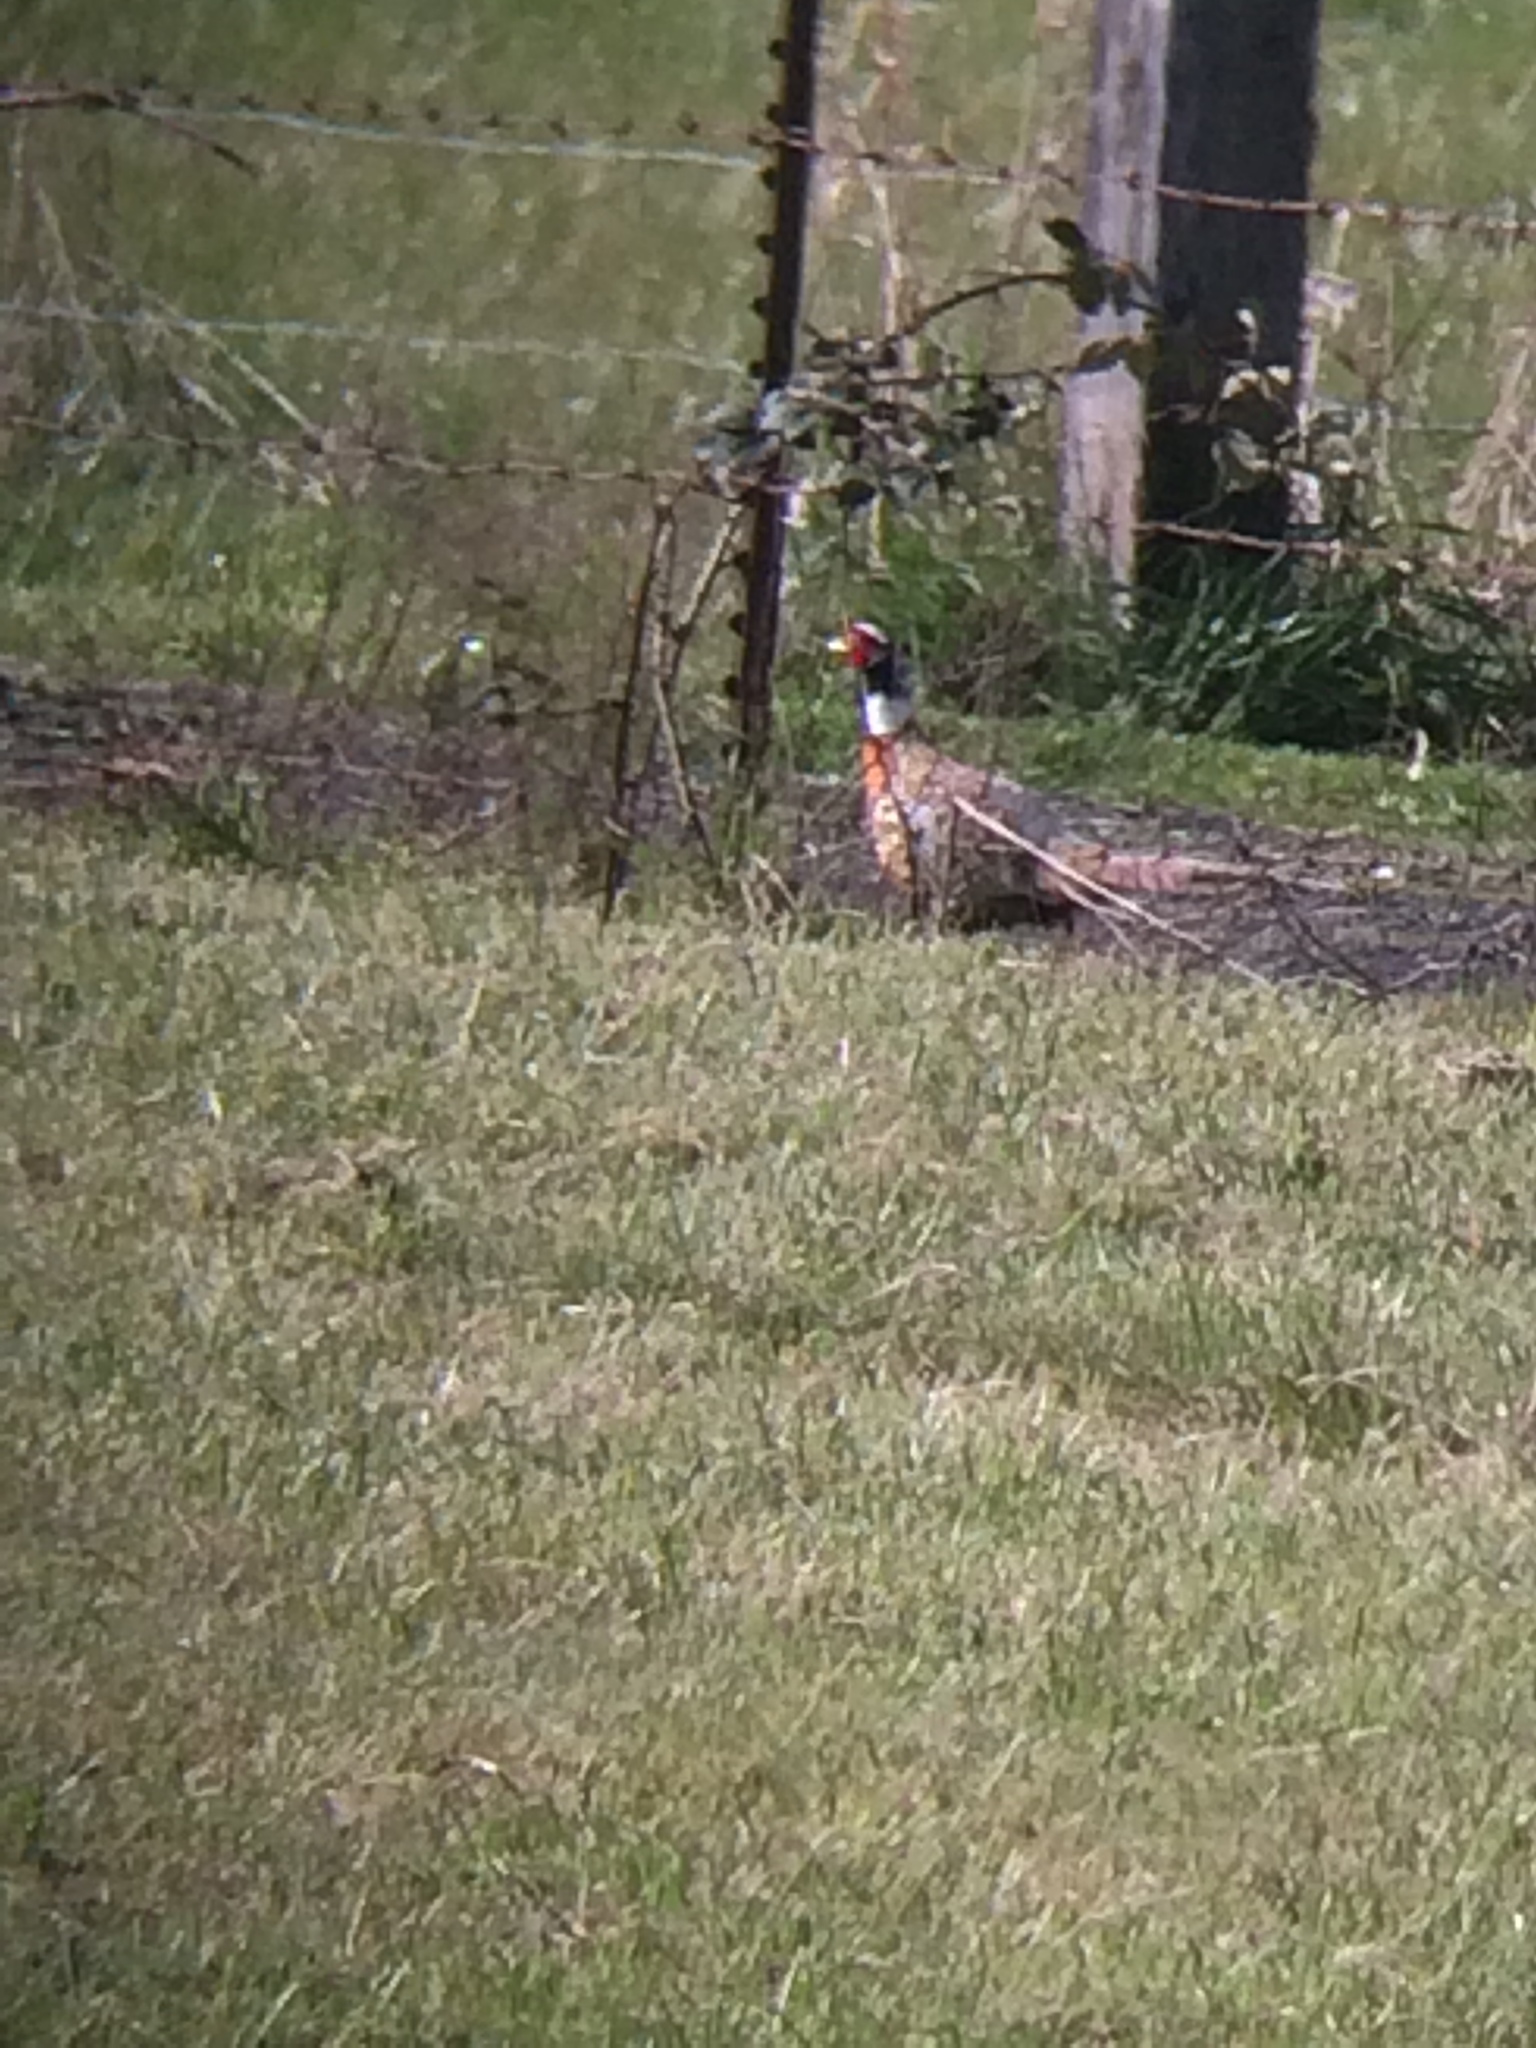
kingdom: Animalia
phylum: Chordata
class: Aves
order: Galliformes
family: Phasianidae
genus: Phasianus
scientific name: Phasianus colchicus
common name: Common pheasant
